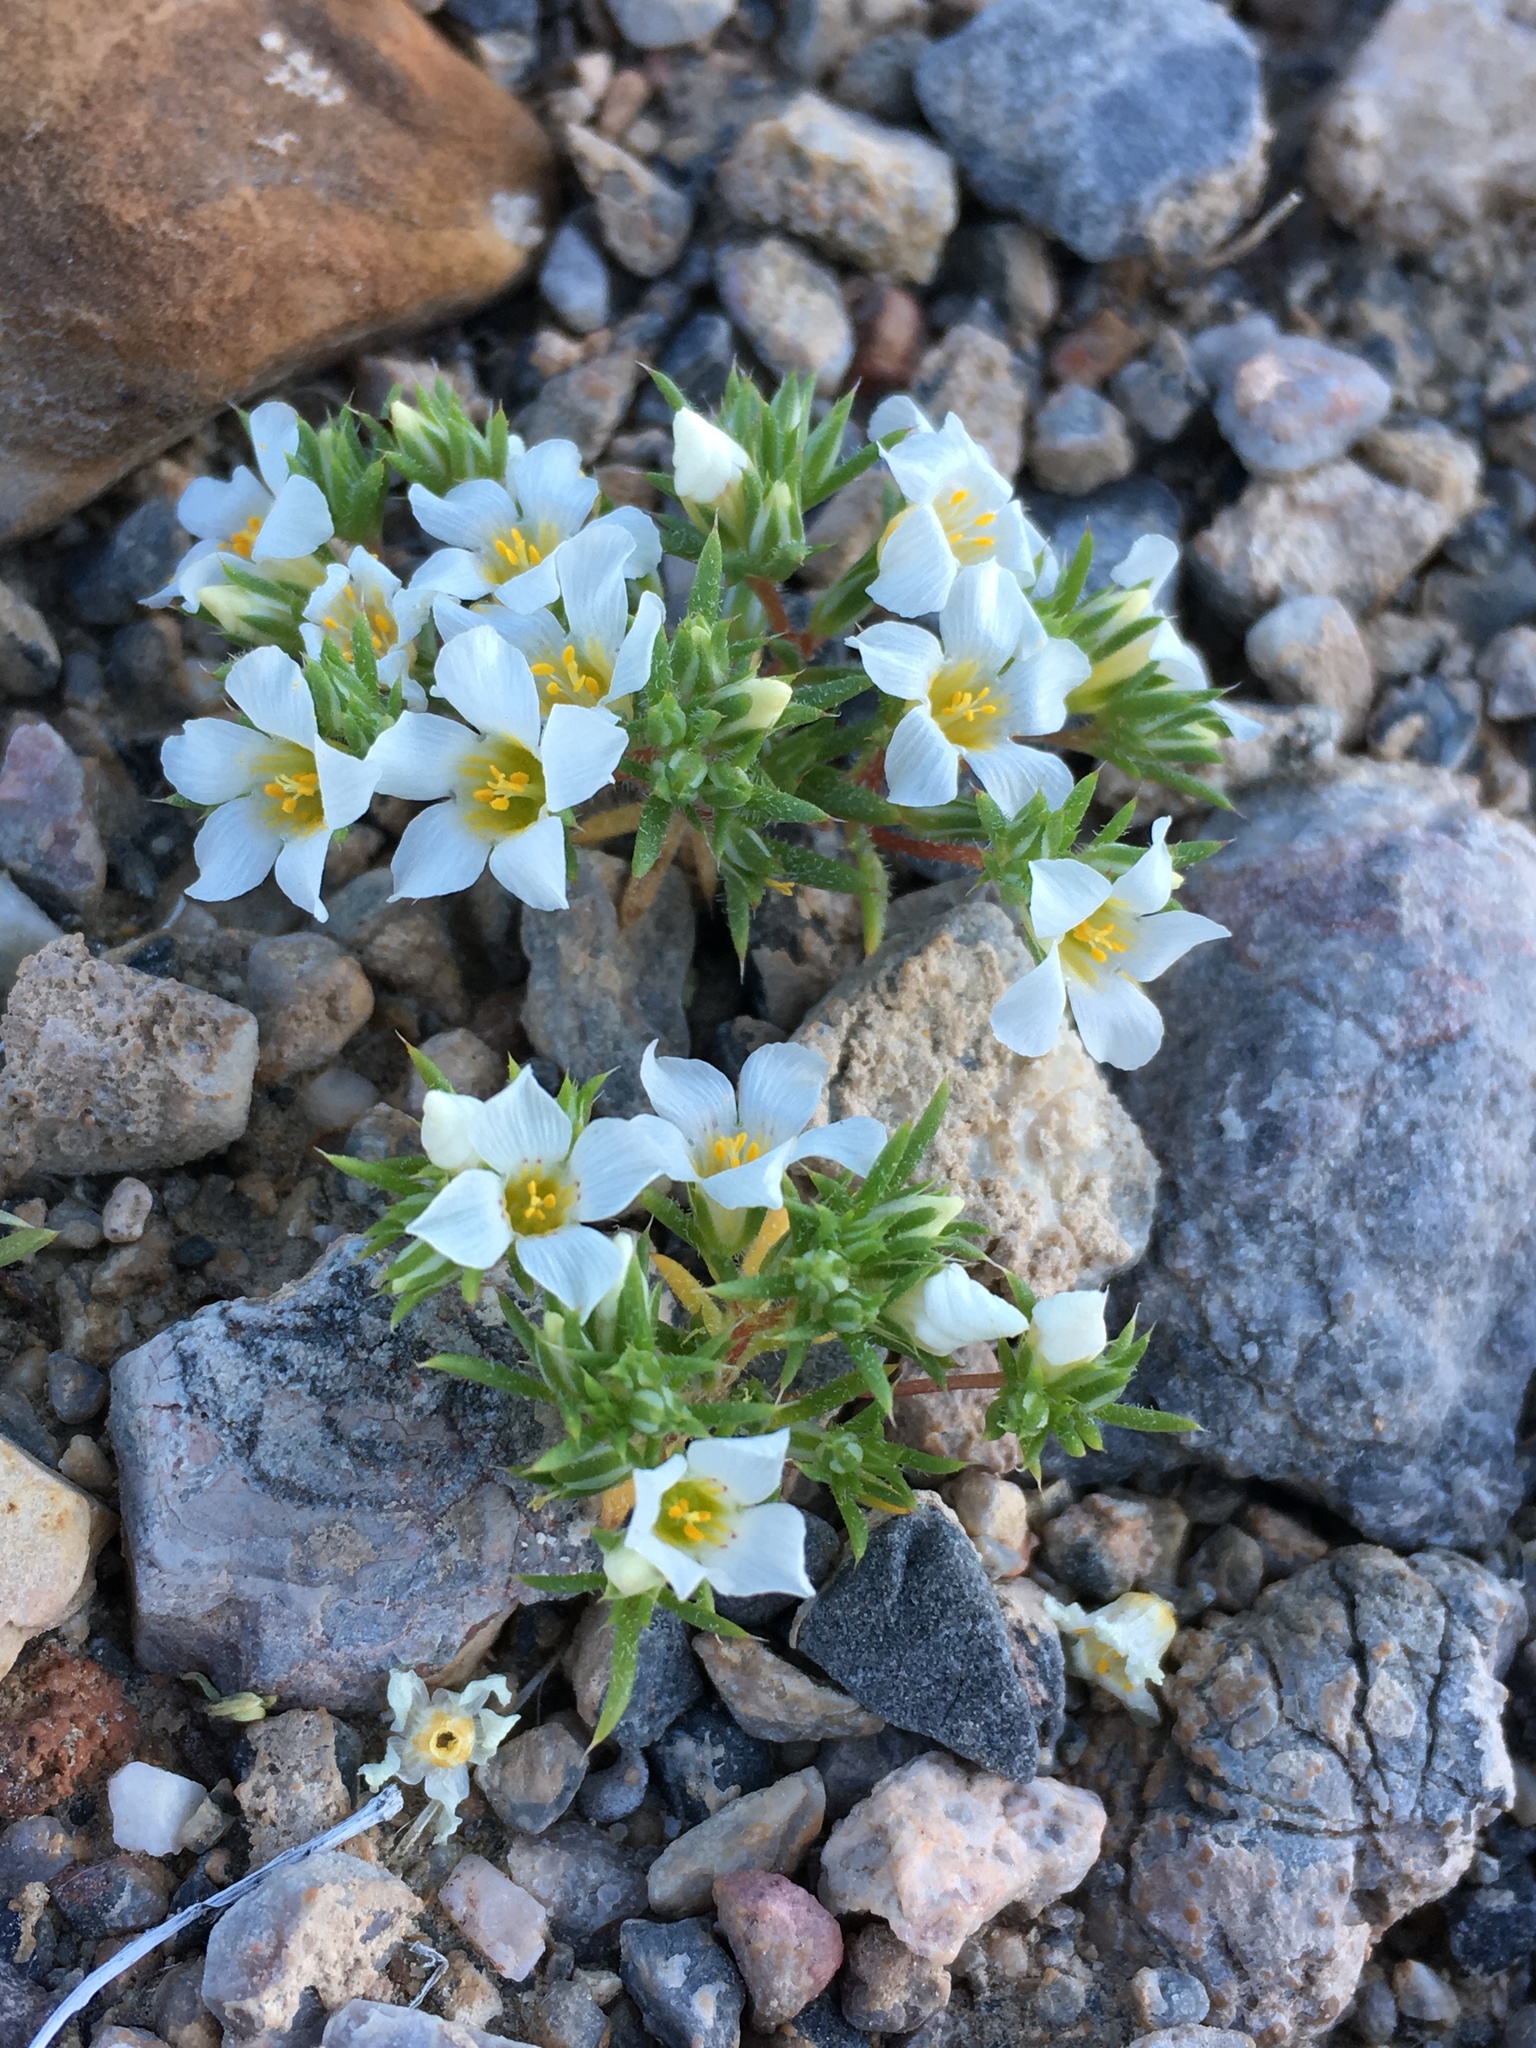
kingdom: Plantae
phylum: Tracheophyta
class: Magnoliopsida
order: Ericales
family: Polemoniaceae
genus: Linanthus
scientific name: Linanthus demissus
